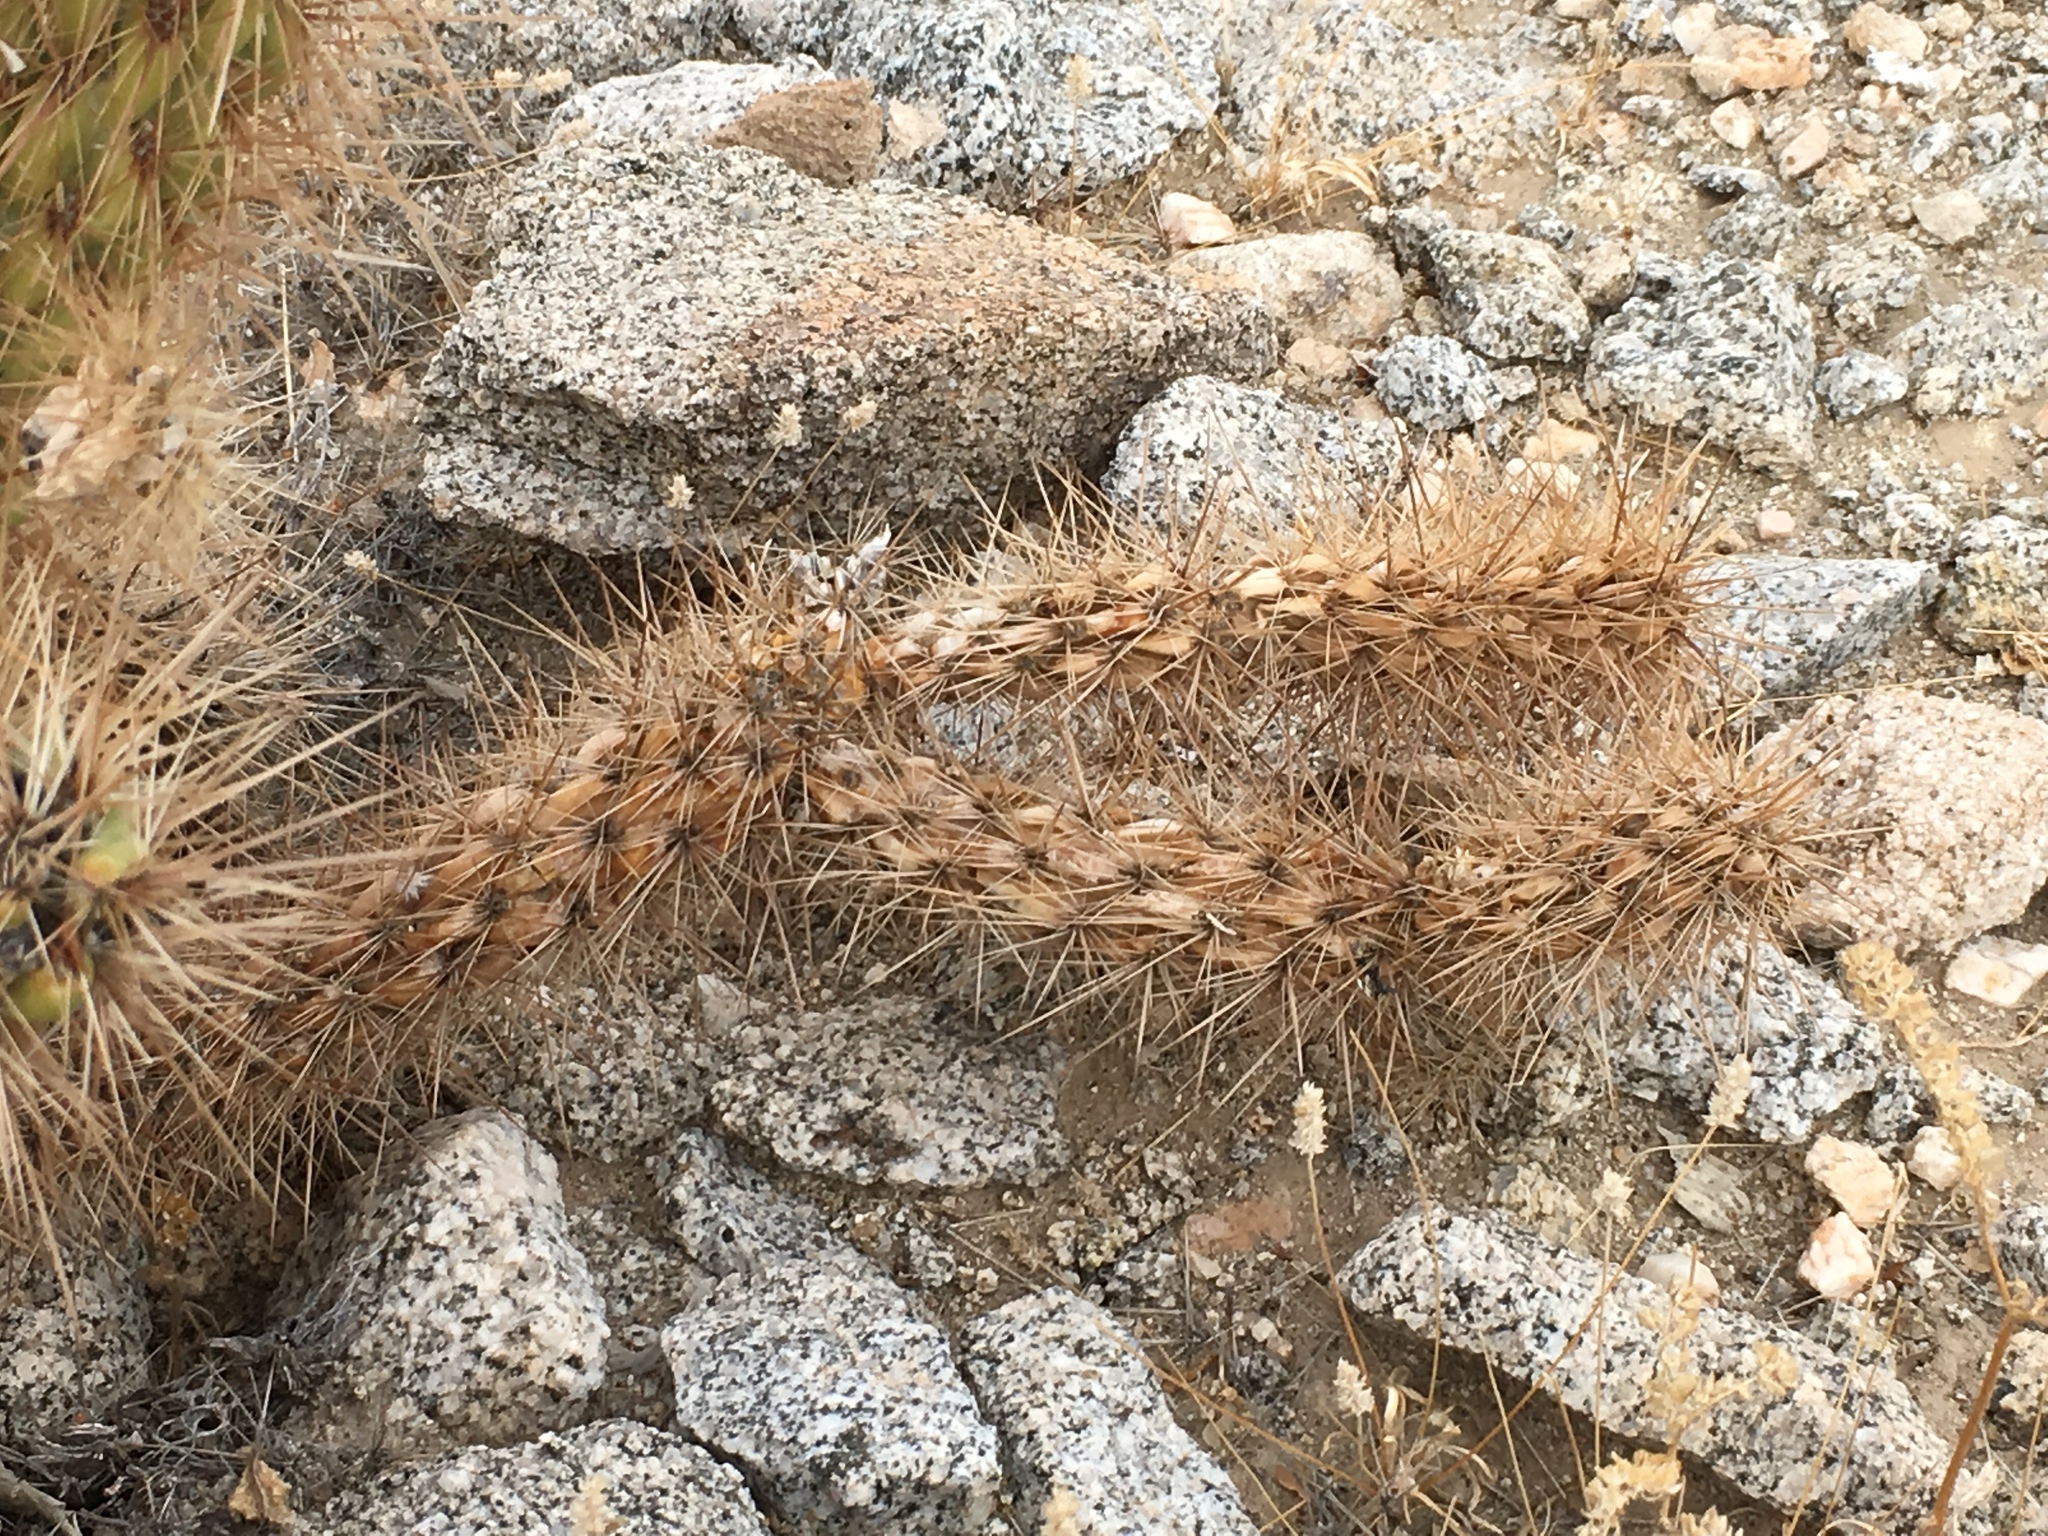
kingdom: Plantae
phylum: Tracheophyta
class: Magnoliopsida
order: Caryophyllales
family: Cactaceae
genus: Cylindropuntia
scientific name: Cylindropuntia ganderi
